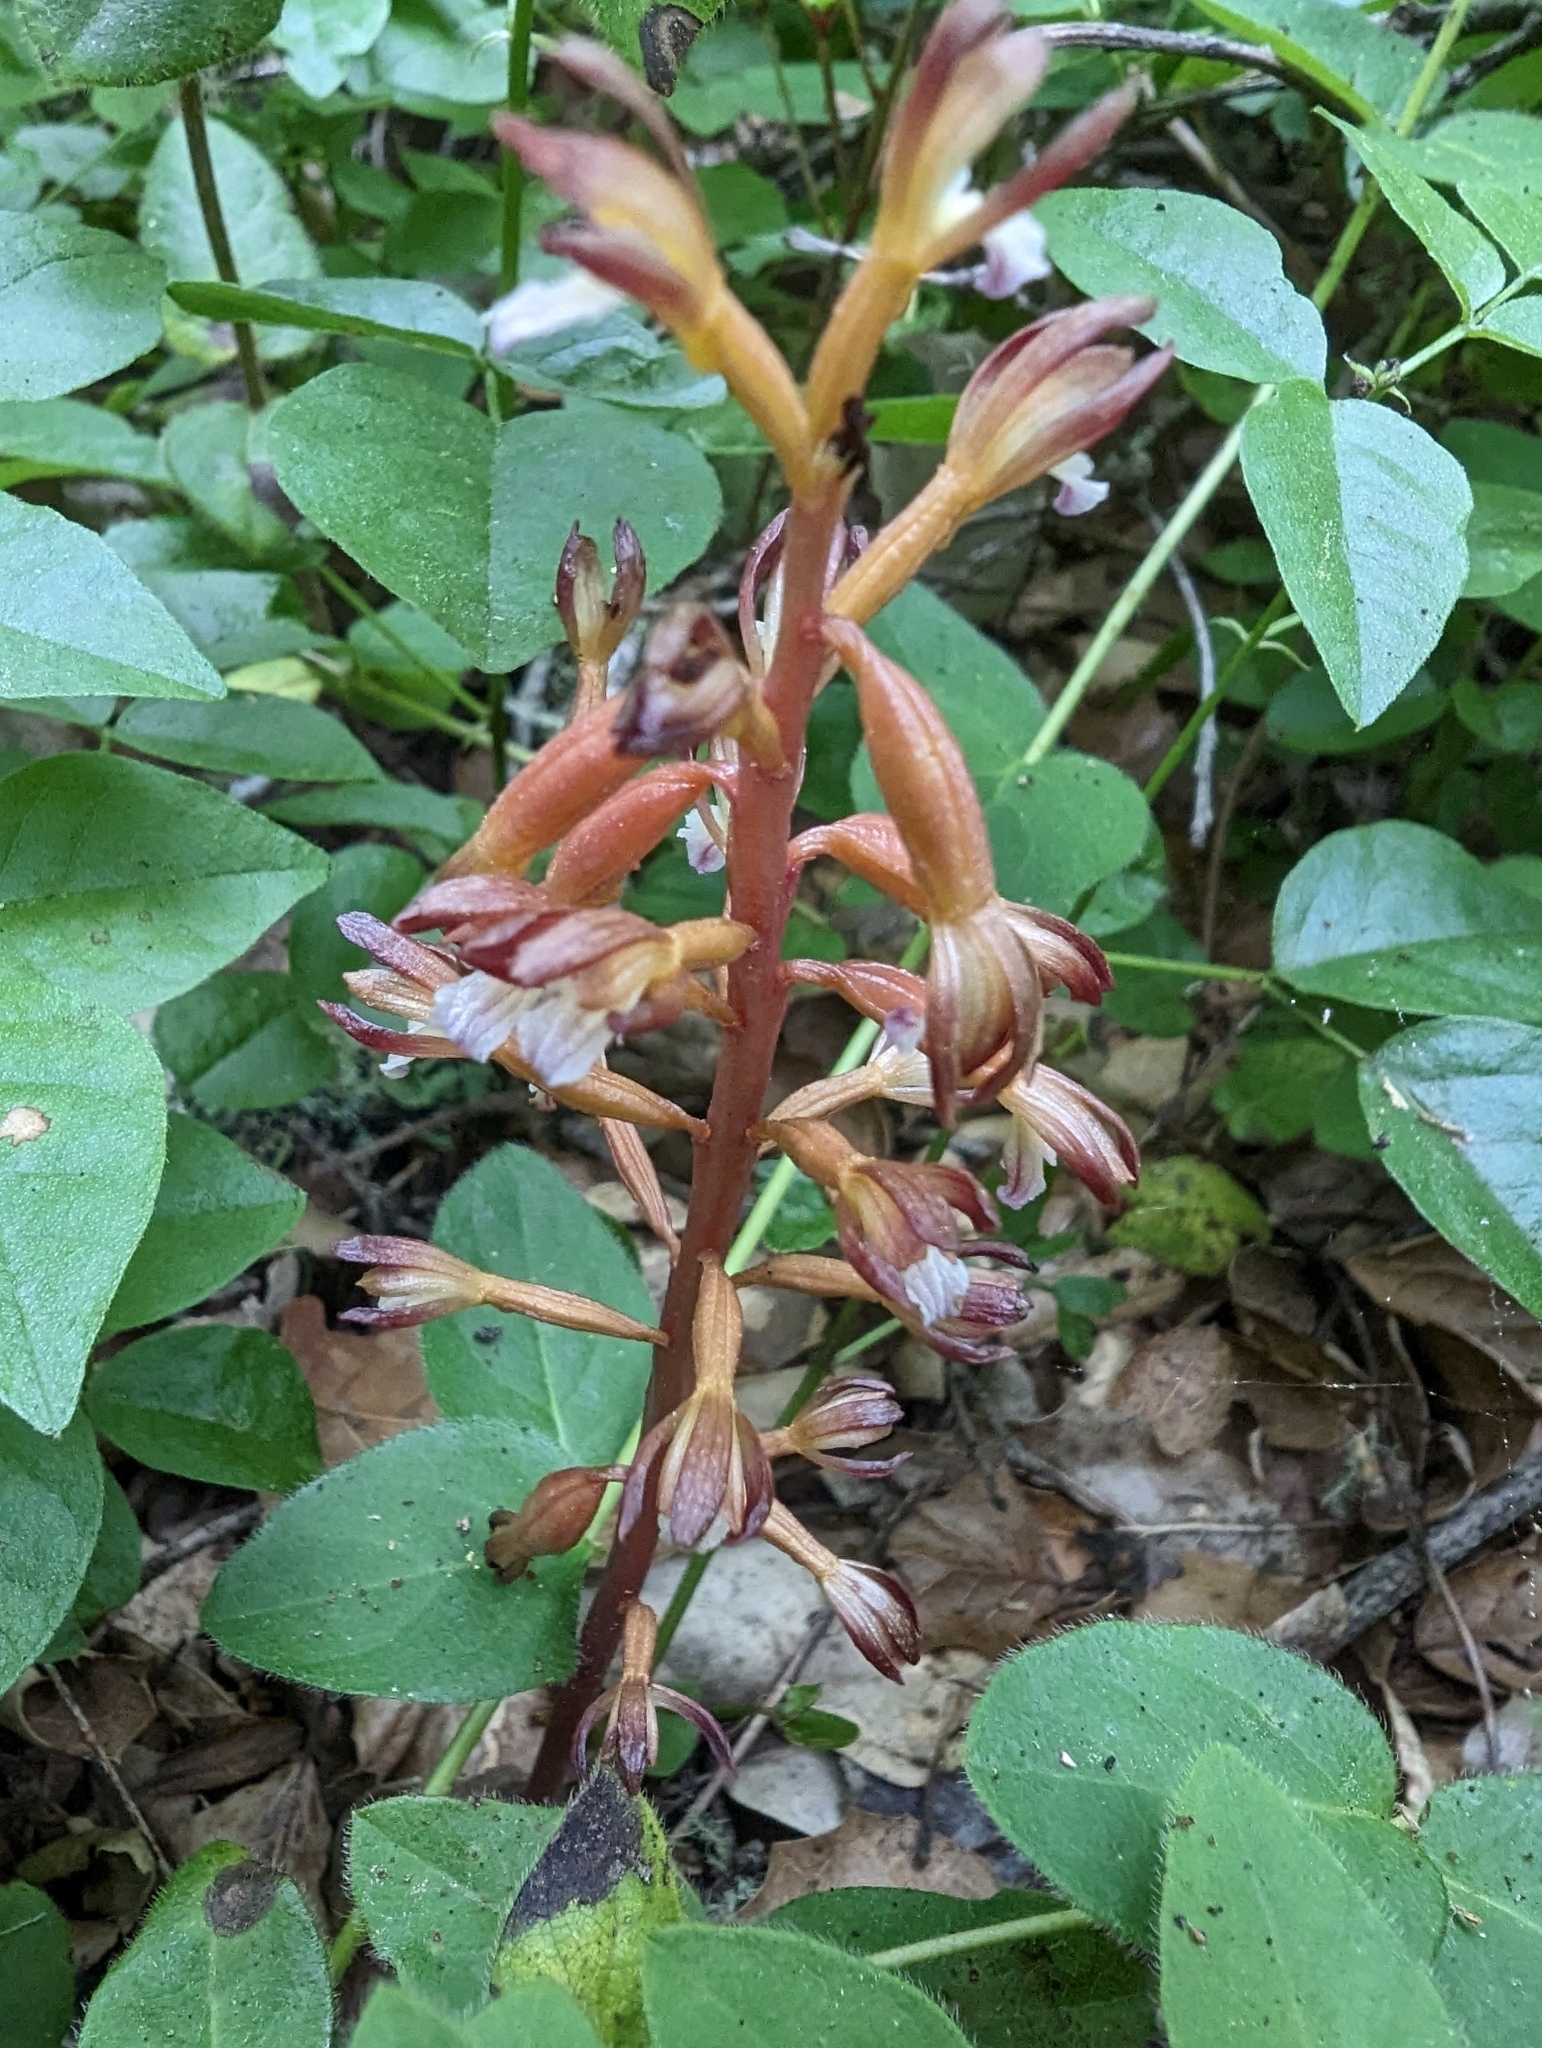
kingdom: Plantae
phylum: Tracheophyta
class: Liliopsida
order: Asparagales
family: Orchidaceae
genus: Corallorhiza
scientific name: Corallorhiza maculata
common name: Spotted coralroot
